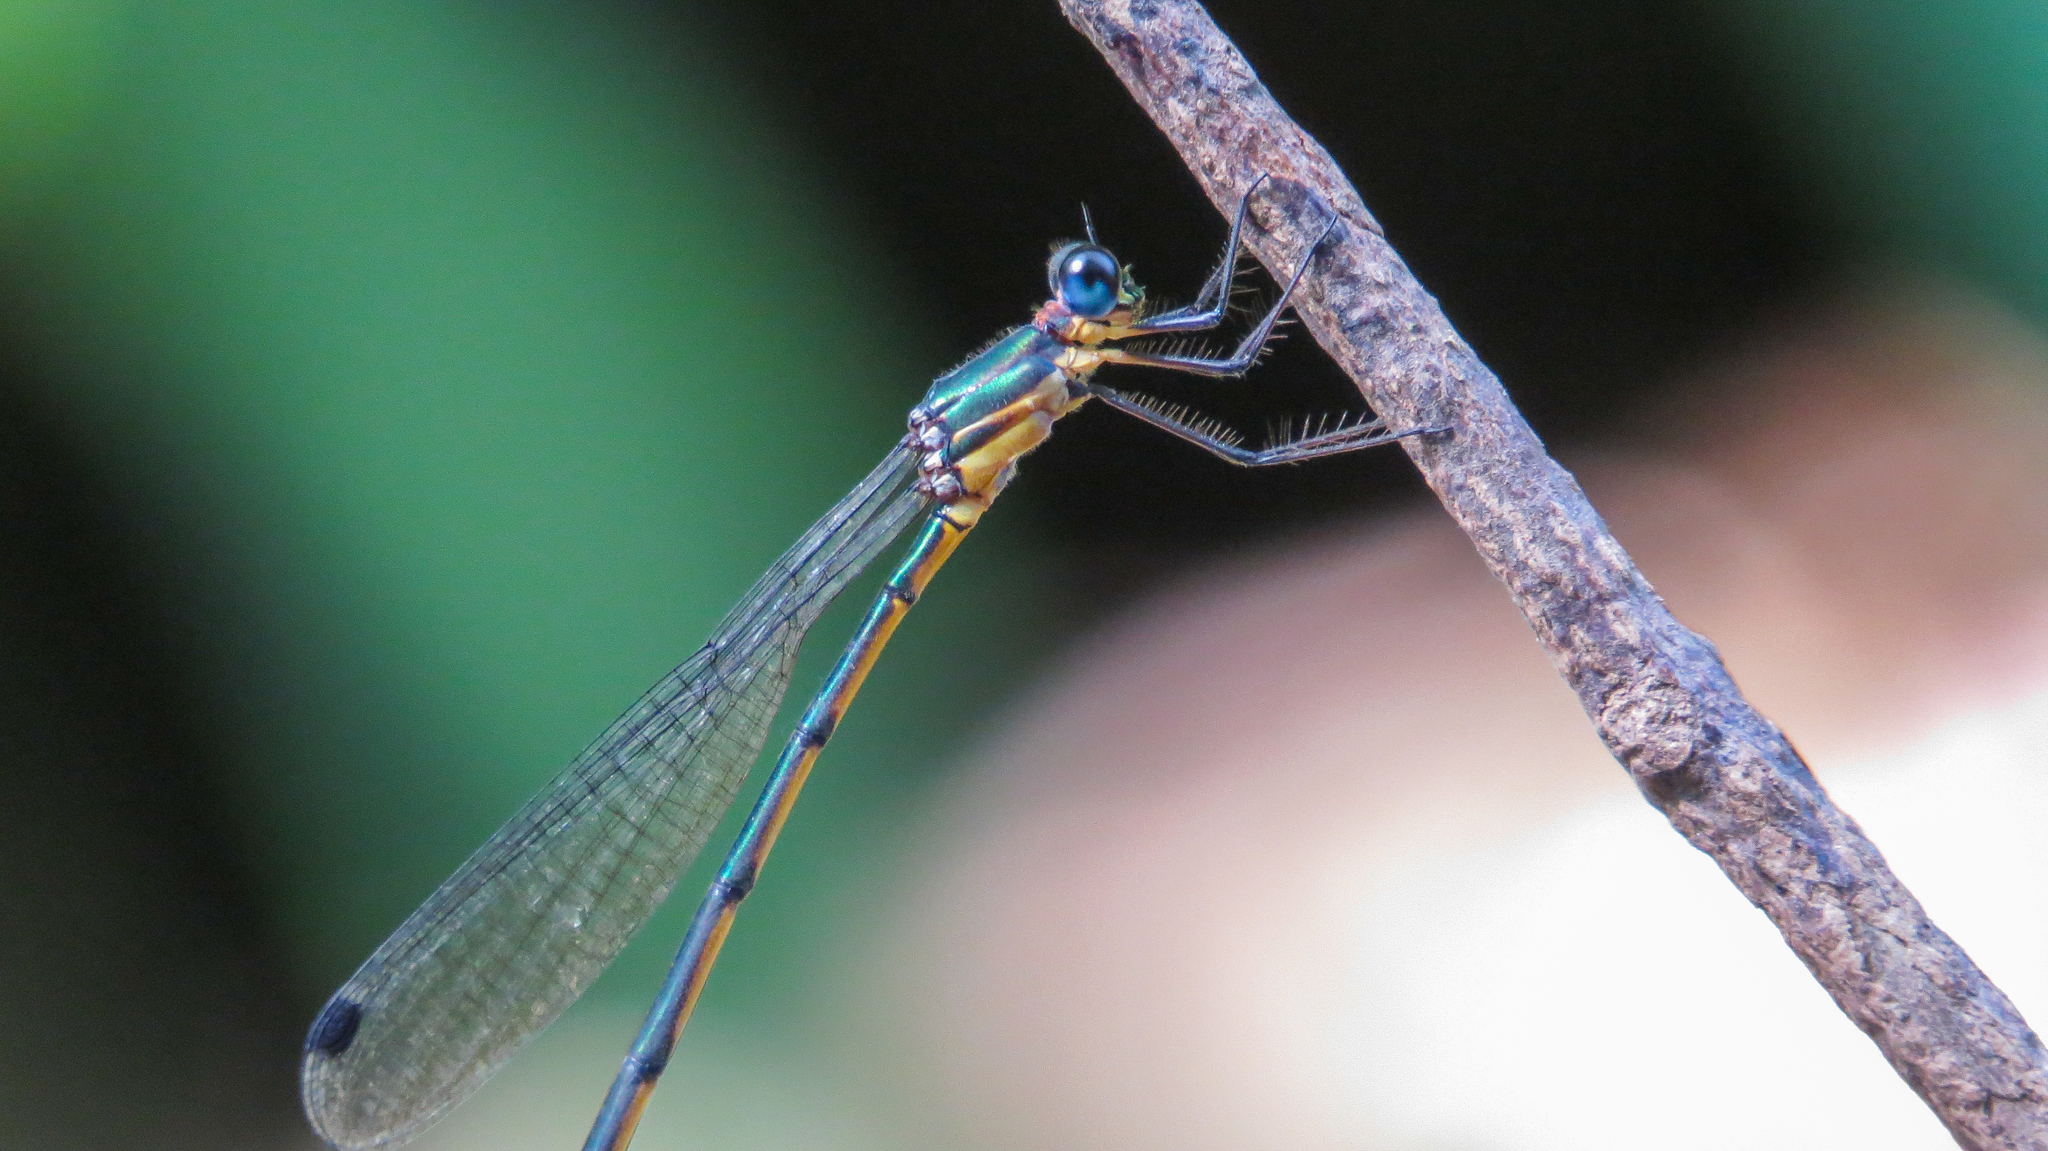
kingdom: Animalia
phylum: Arthropoda
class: Insecta
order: Odonata
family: Synlestidae
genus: Synlestes
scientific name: Synlestes selysi
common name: Forest needle
